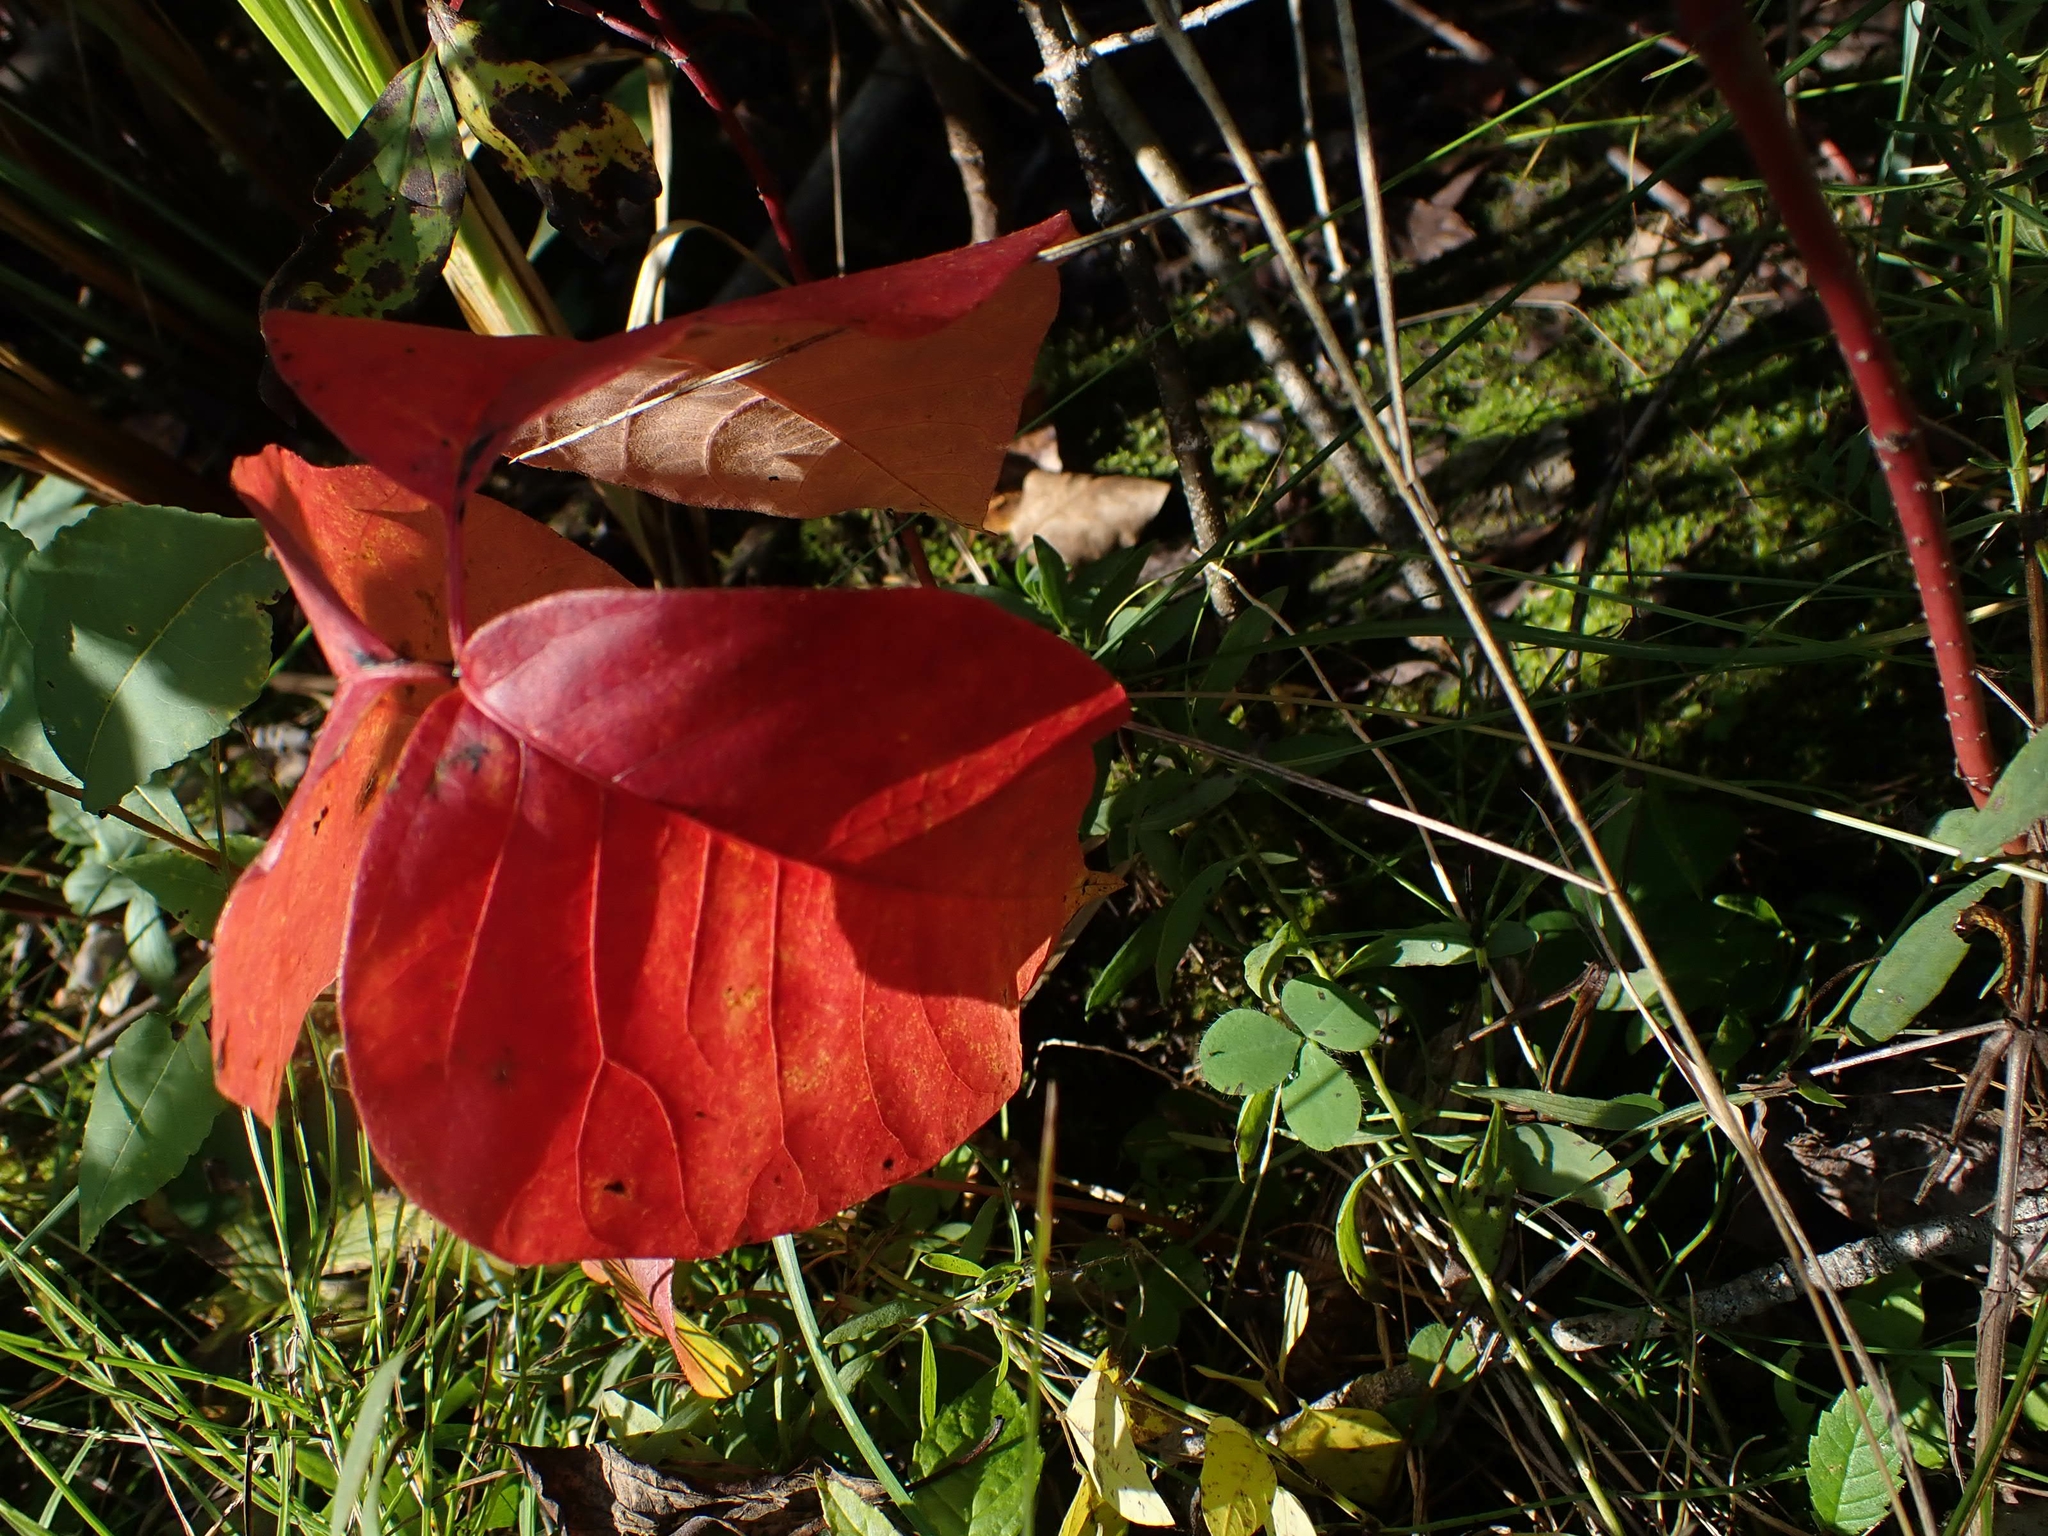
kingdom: Plantae
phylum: Tracheophyta
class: Magnoliopsida
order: Sapindales
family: Anacardiaceae
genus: Toxicodendron
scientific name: Toxicodendron rydbergii
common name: Rydberg's poison-ivy
